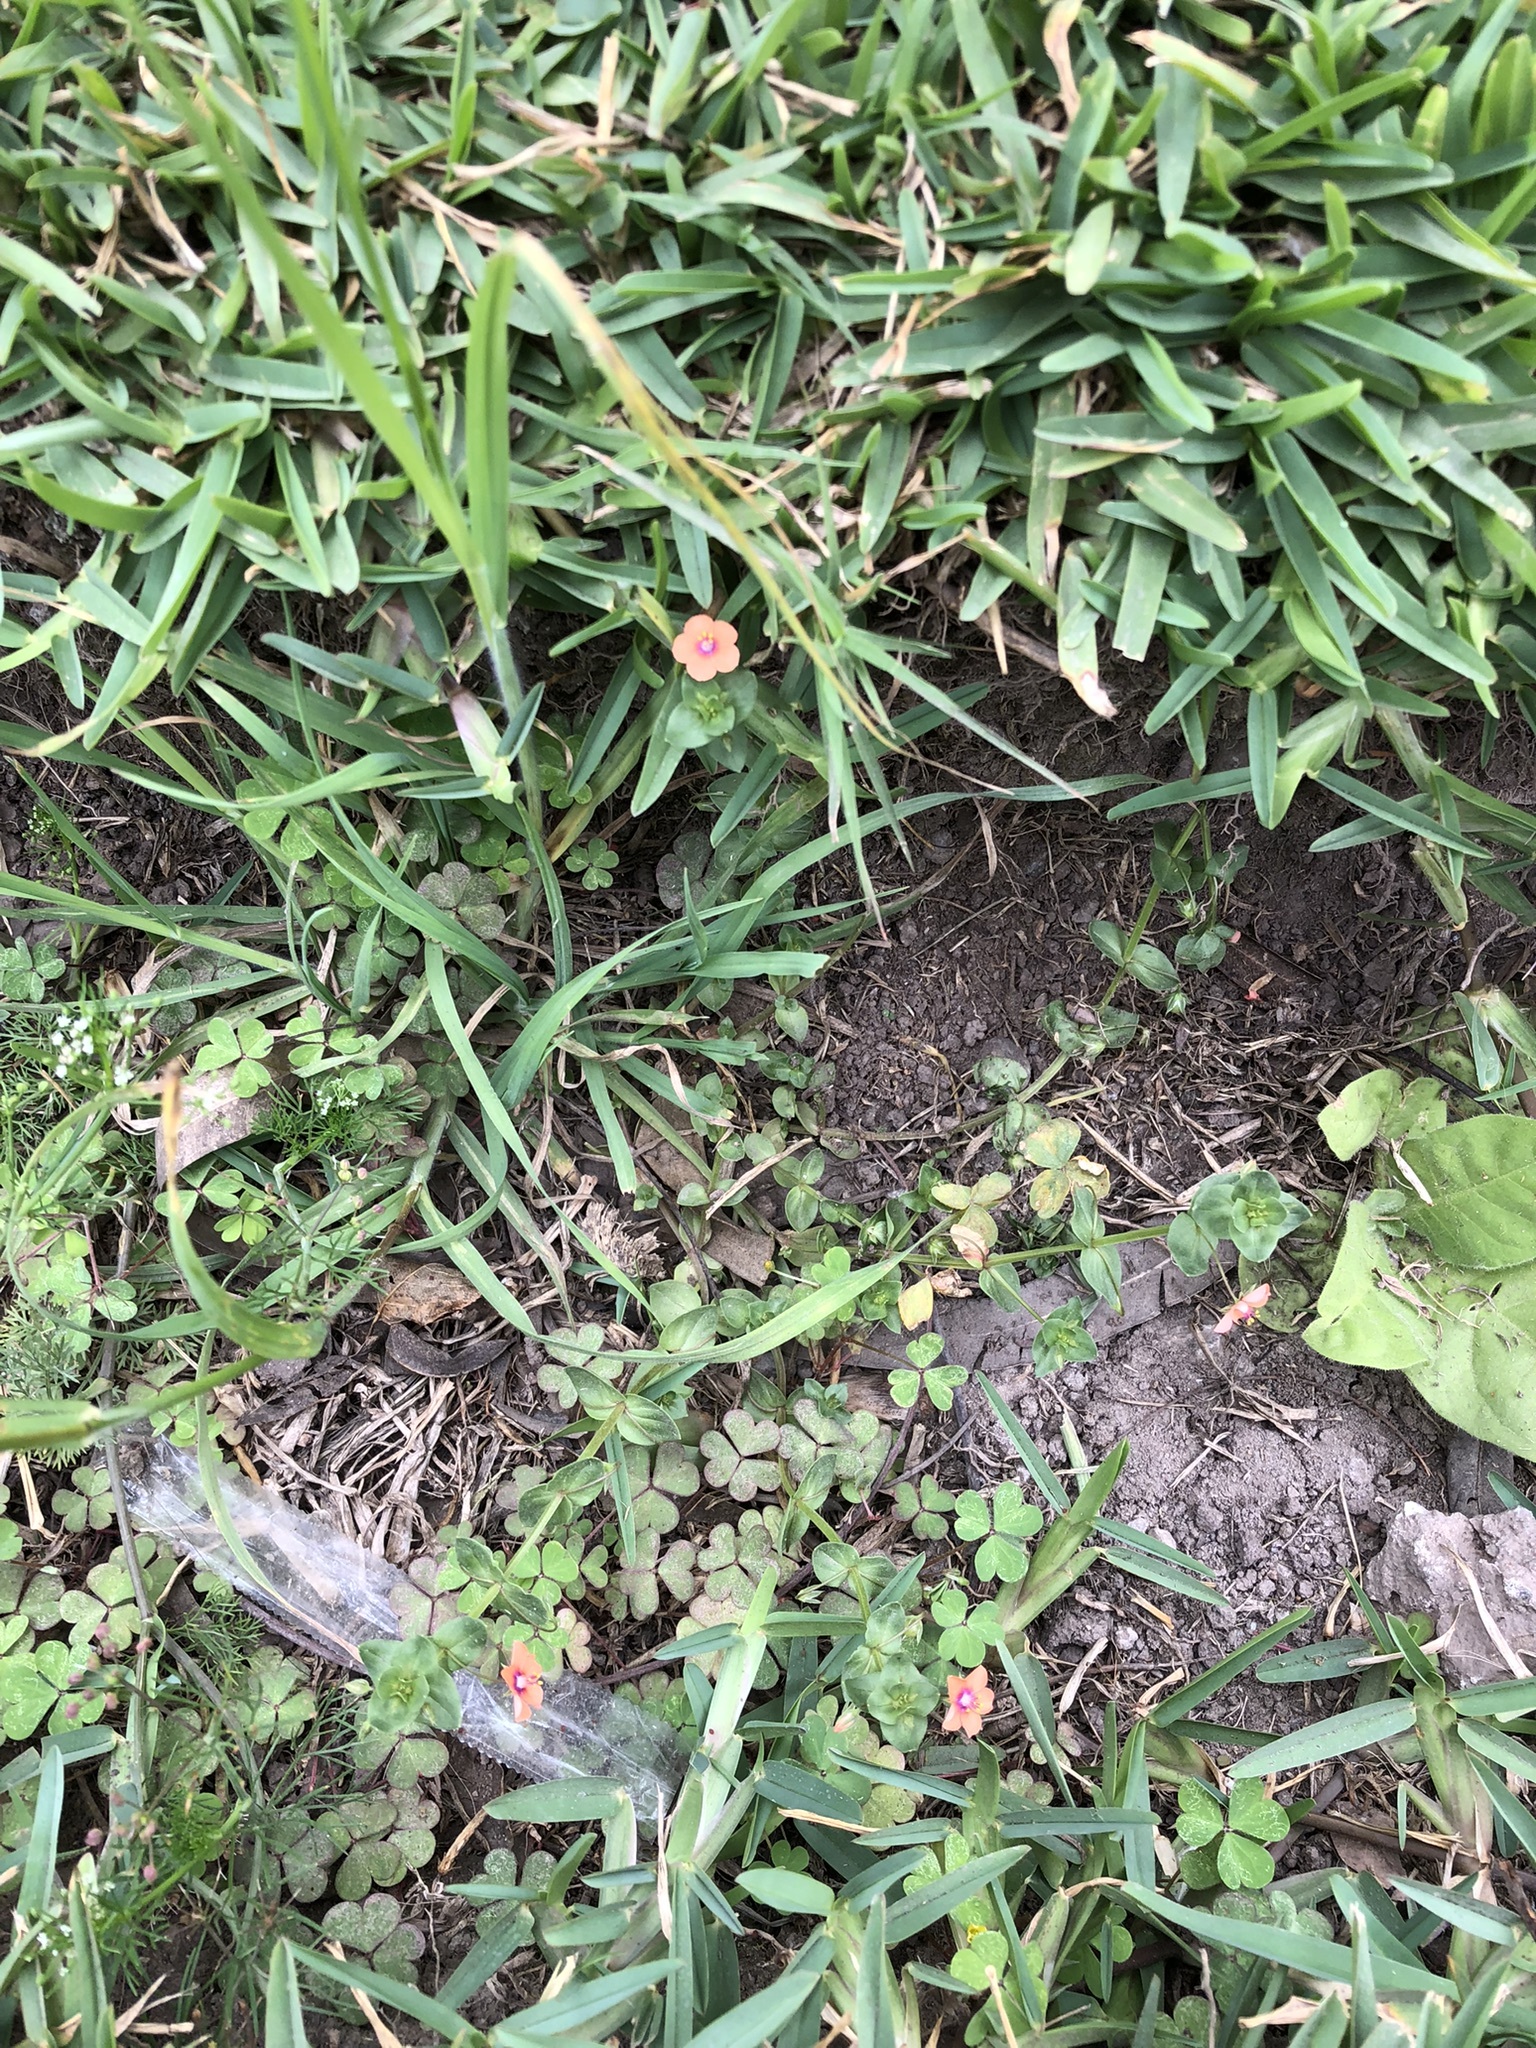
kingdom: Plantae
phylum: Tracheophyta
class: Magnoliopsida
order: Ericales
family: Primulaceae
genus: Lysimachia
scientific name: Lysimachia arvensis
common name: Scarlet pimpernel
